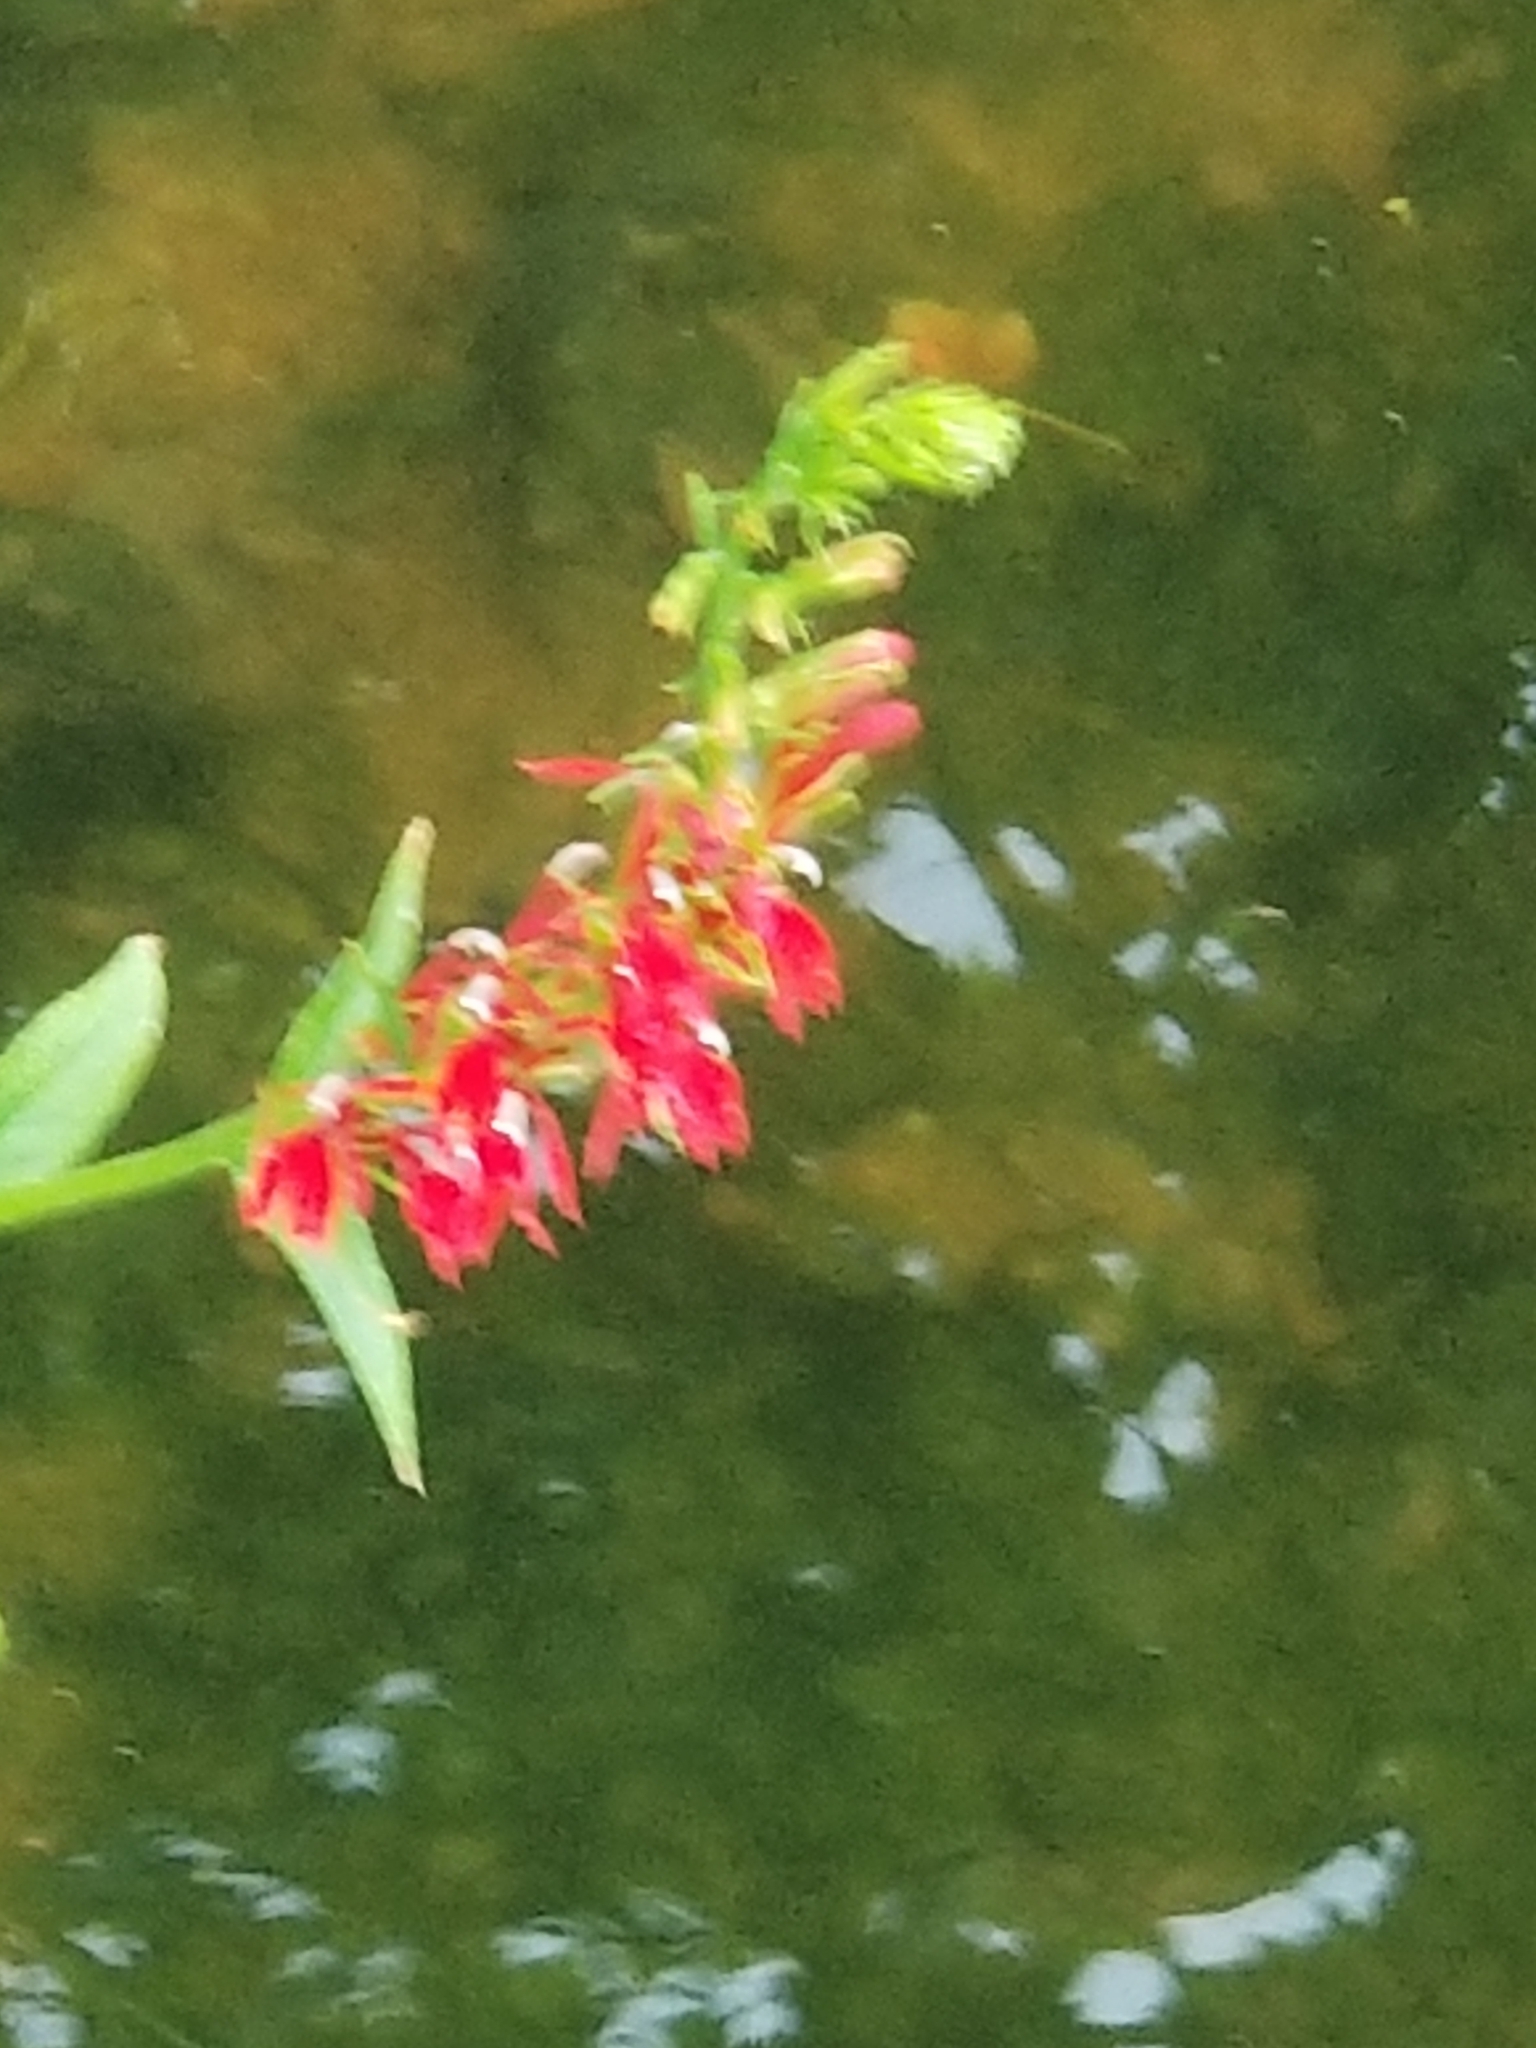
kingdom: Plantae
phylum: Tracheophyta
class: Magnoliopsida
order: Asterales
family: Campanulaceae
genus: Lobelia
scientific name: Lobelia cardinalis
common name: Cardinal flower
